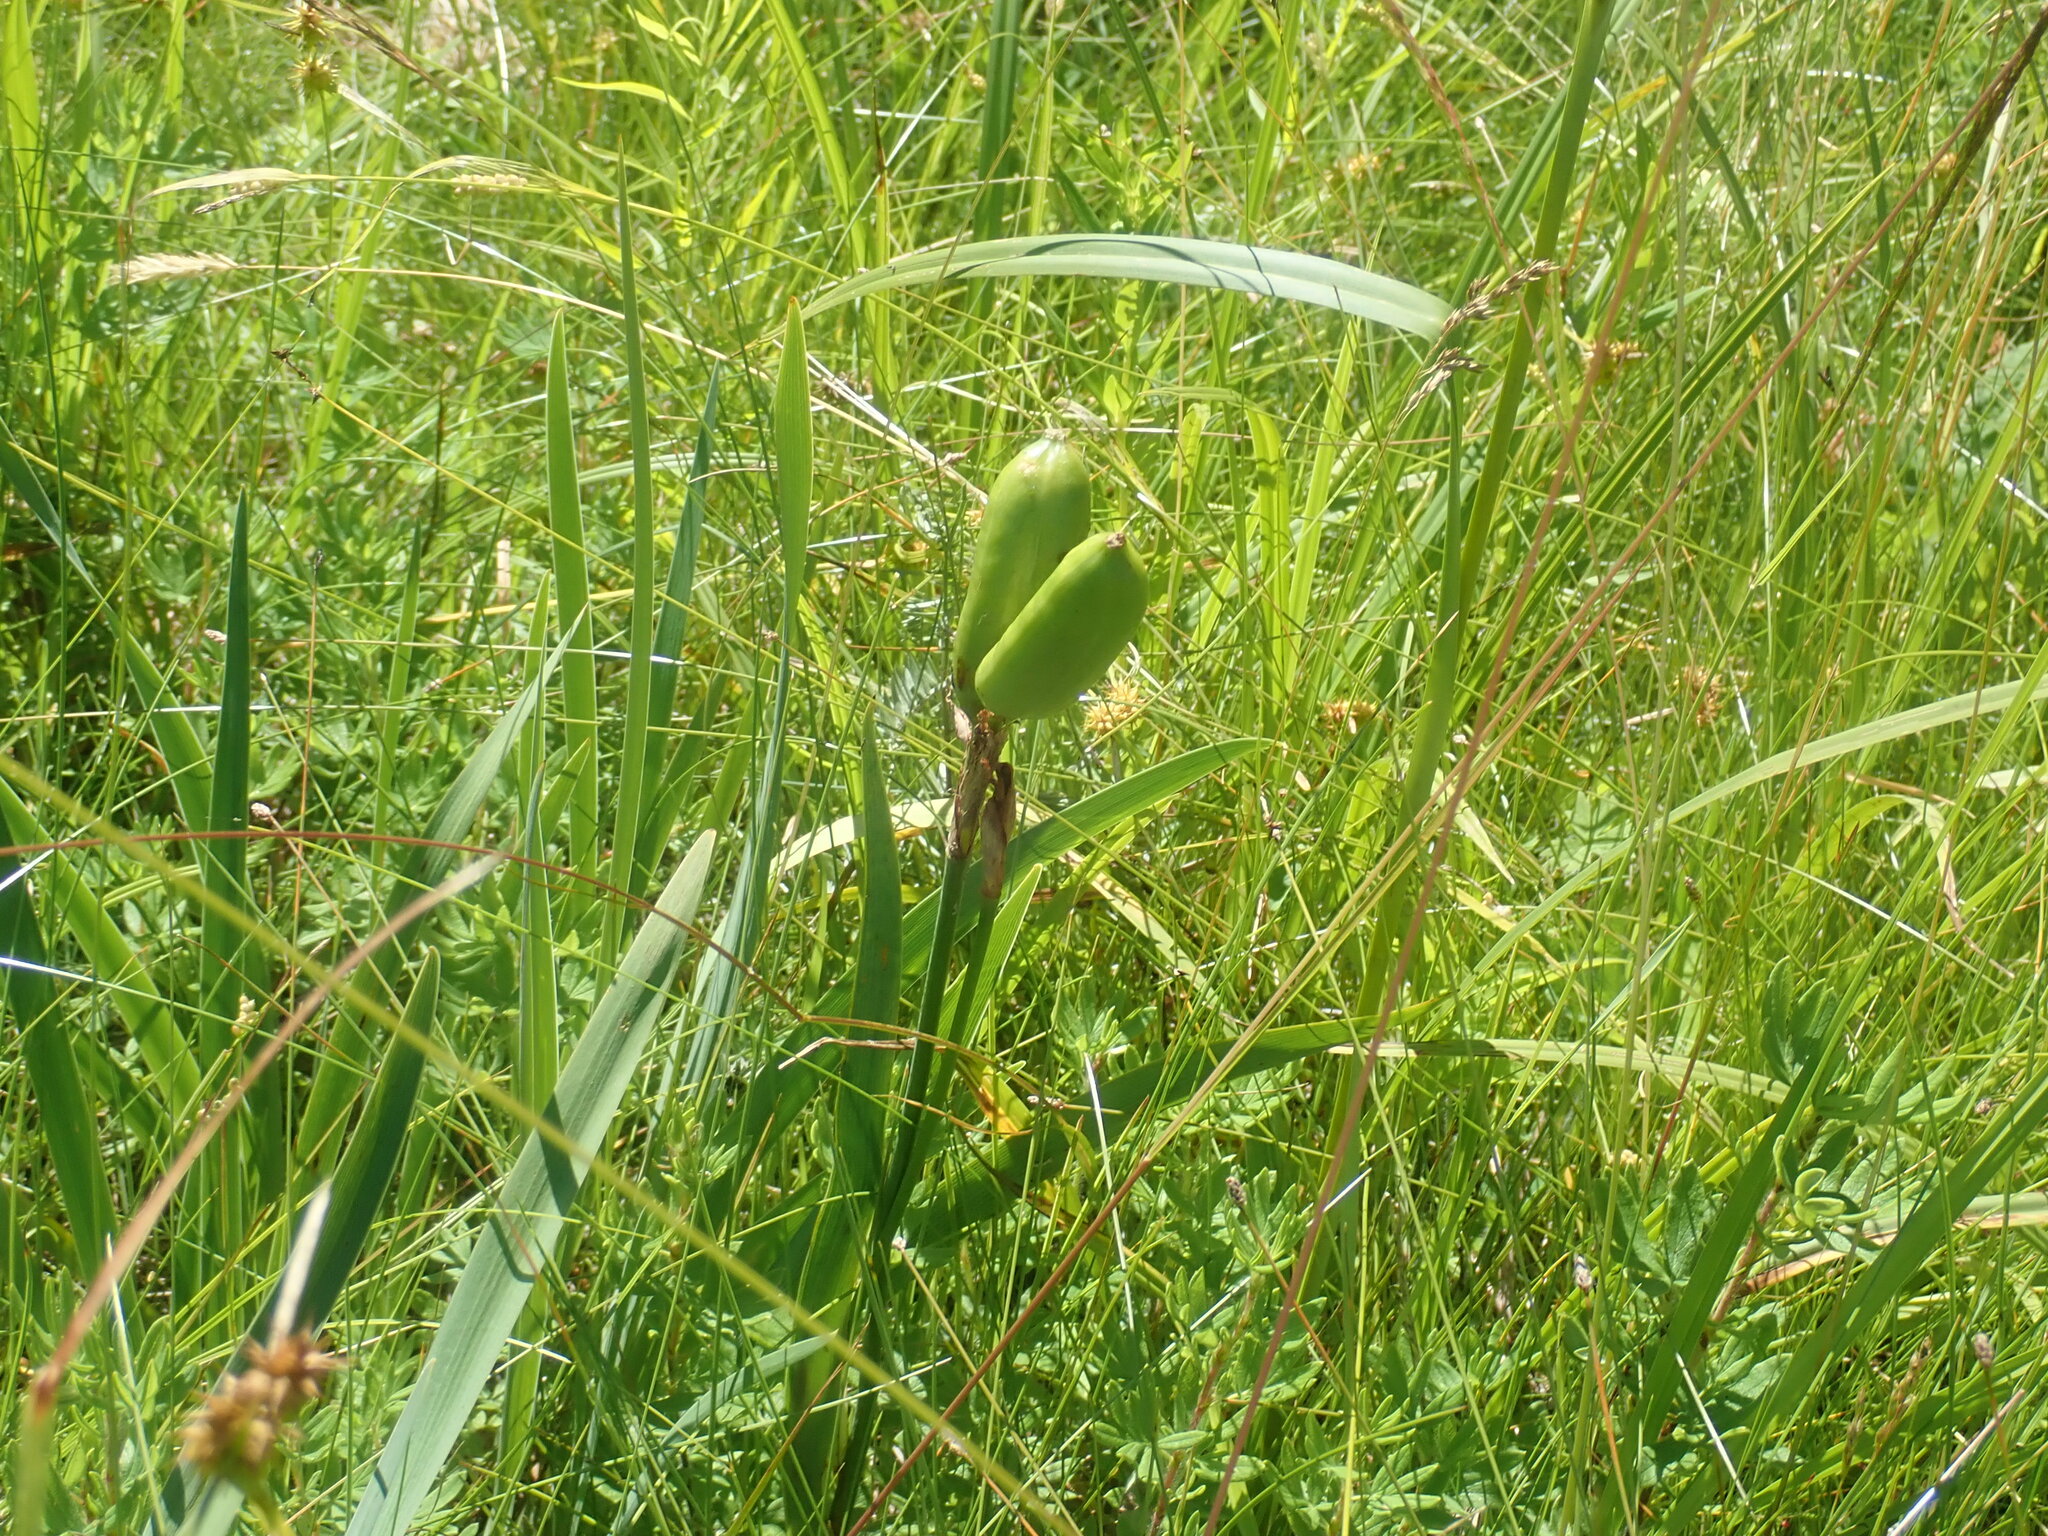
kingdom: Plantae
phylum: Tracheophyta
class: Liliopsida
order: Asparagales
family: Iridaceae
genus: Iris
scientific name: Iris versicolor
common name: Purple iris
